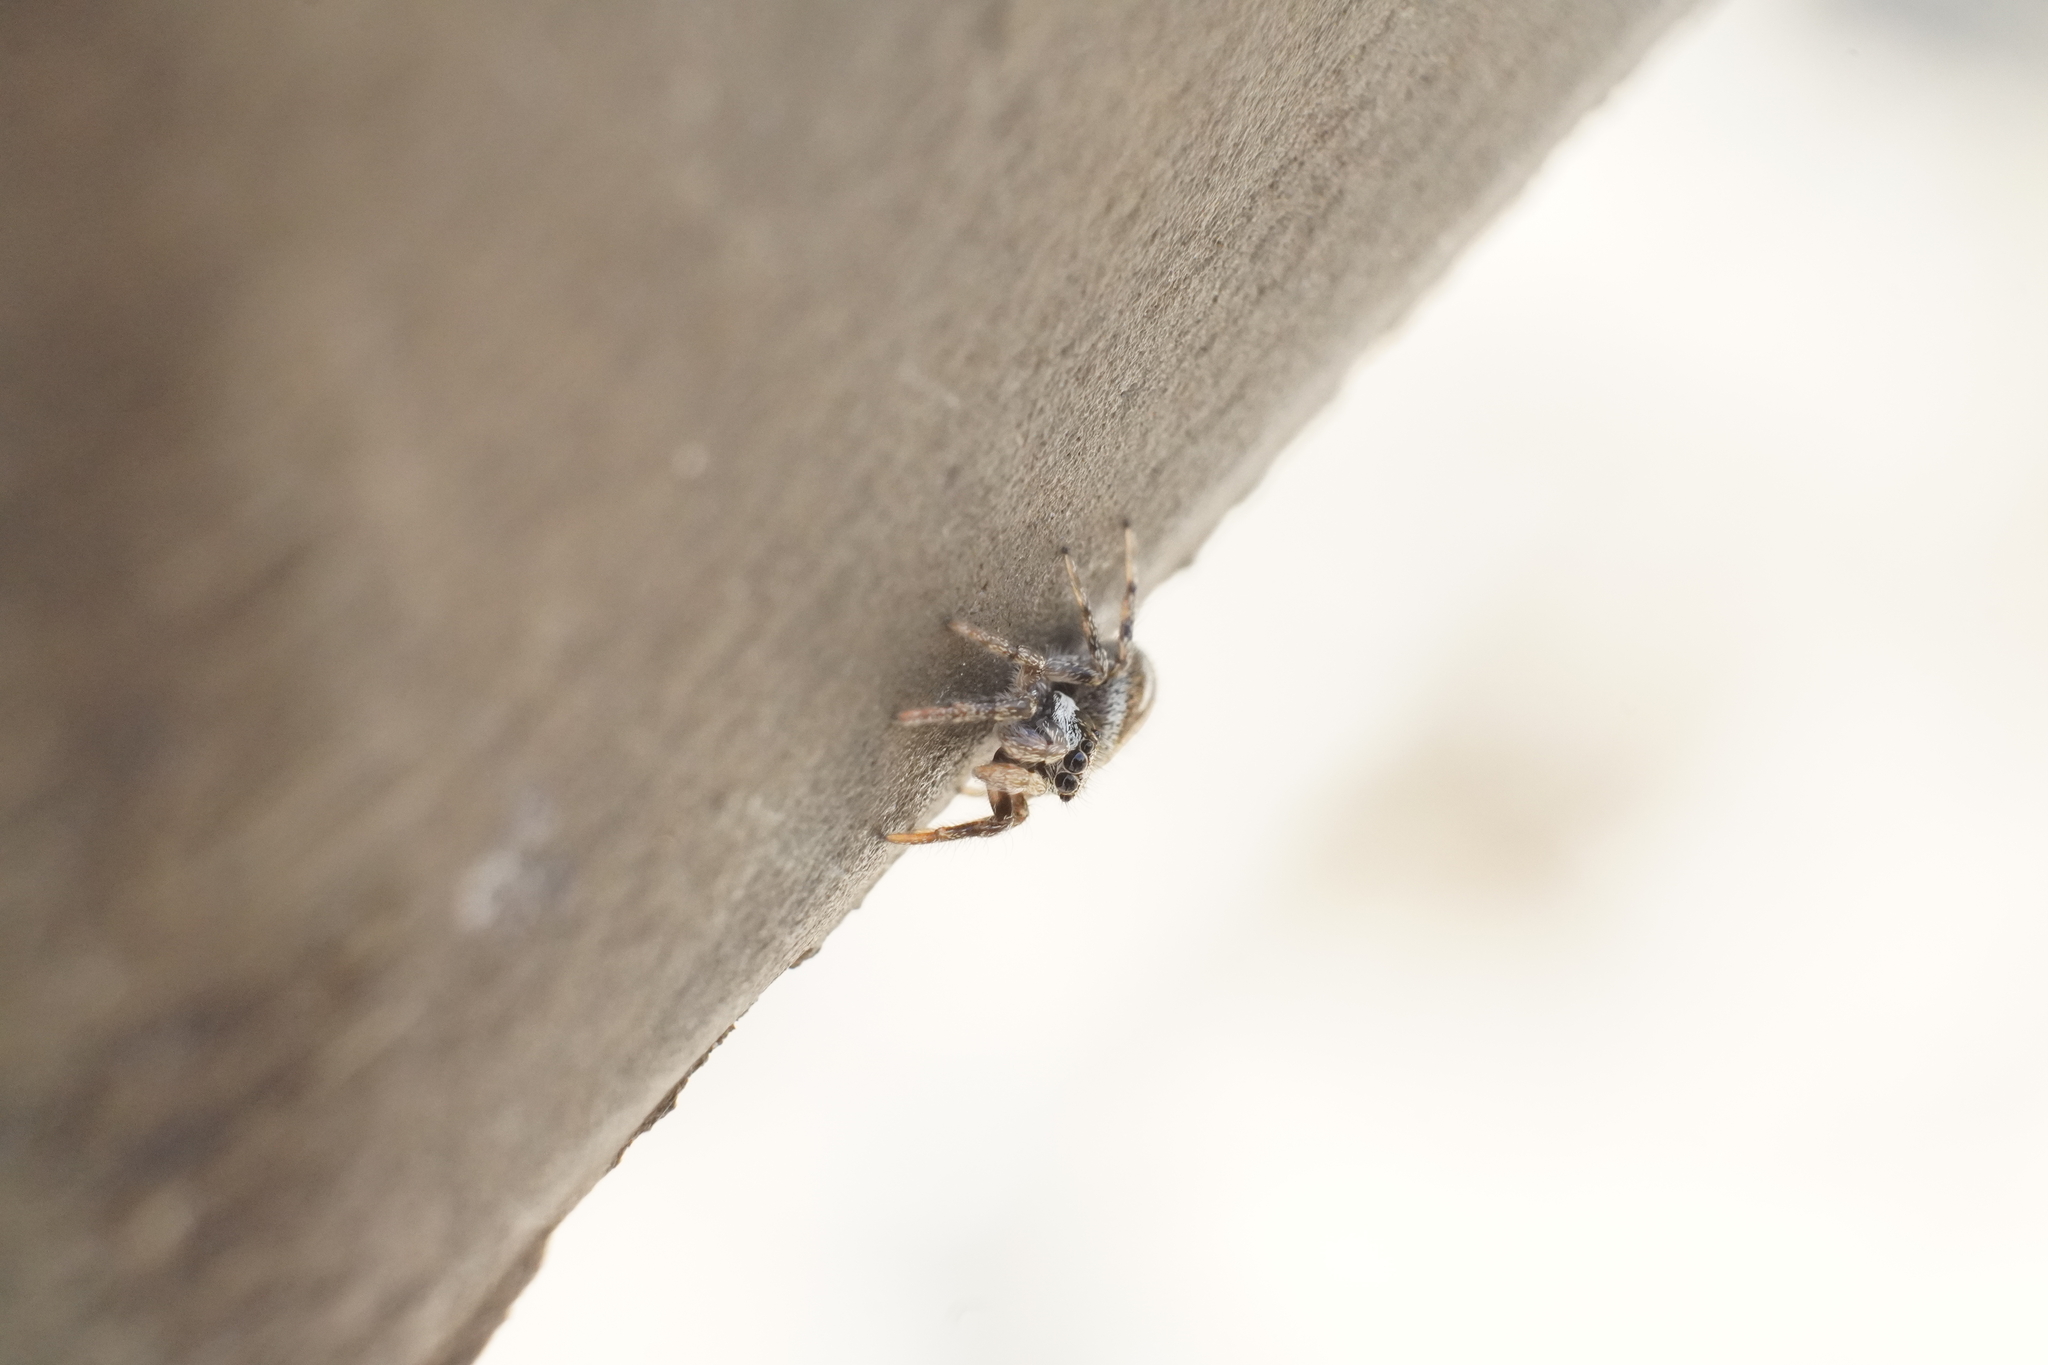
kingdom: Animalia
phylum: Arthropoda
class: Arachnida
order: Araneae
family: Salticidae
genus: Salticus
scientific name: Salticus scenicus
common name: Zebra jumper
